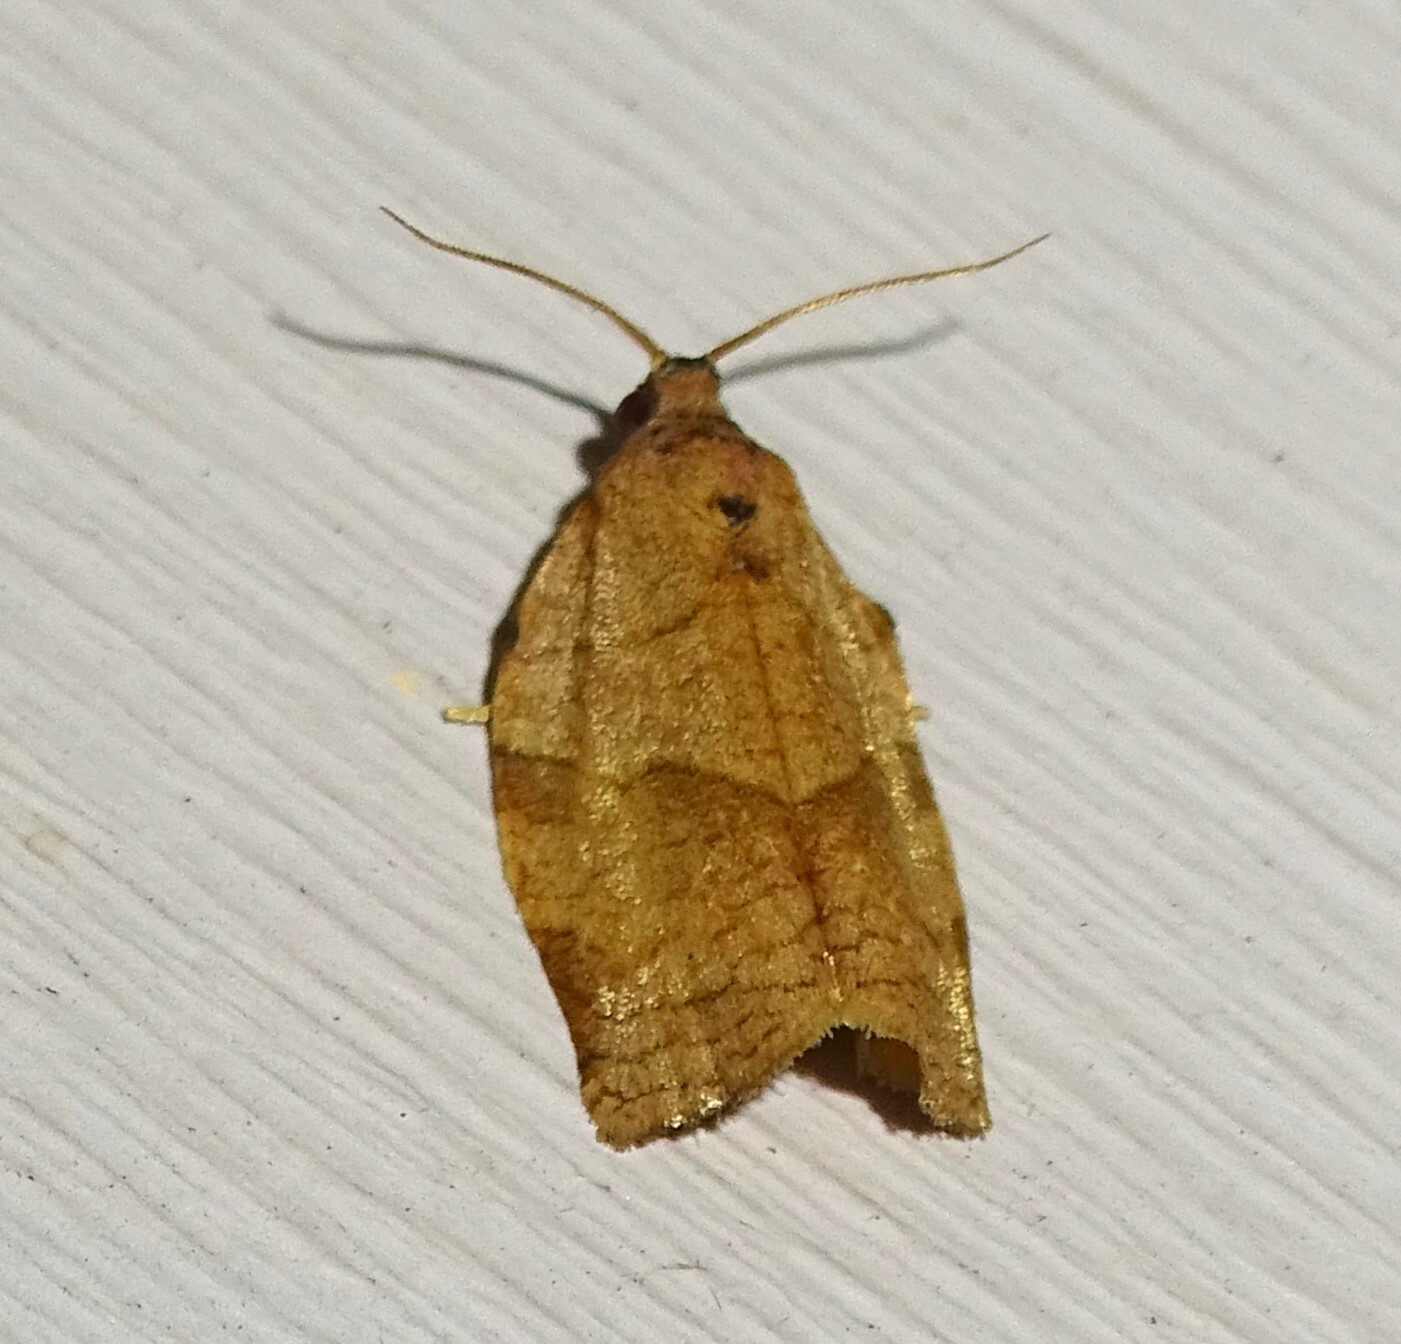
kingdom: Animalia
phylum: Arthropoda
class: Insecta
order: Lepidoptera
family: Tortricidae
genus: Choristoneura
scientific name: Choristoneura rosaceana
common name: Oblique-banded leafroller moth
